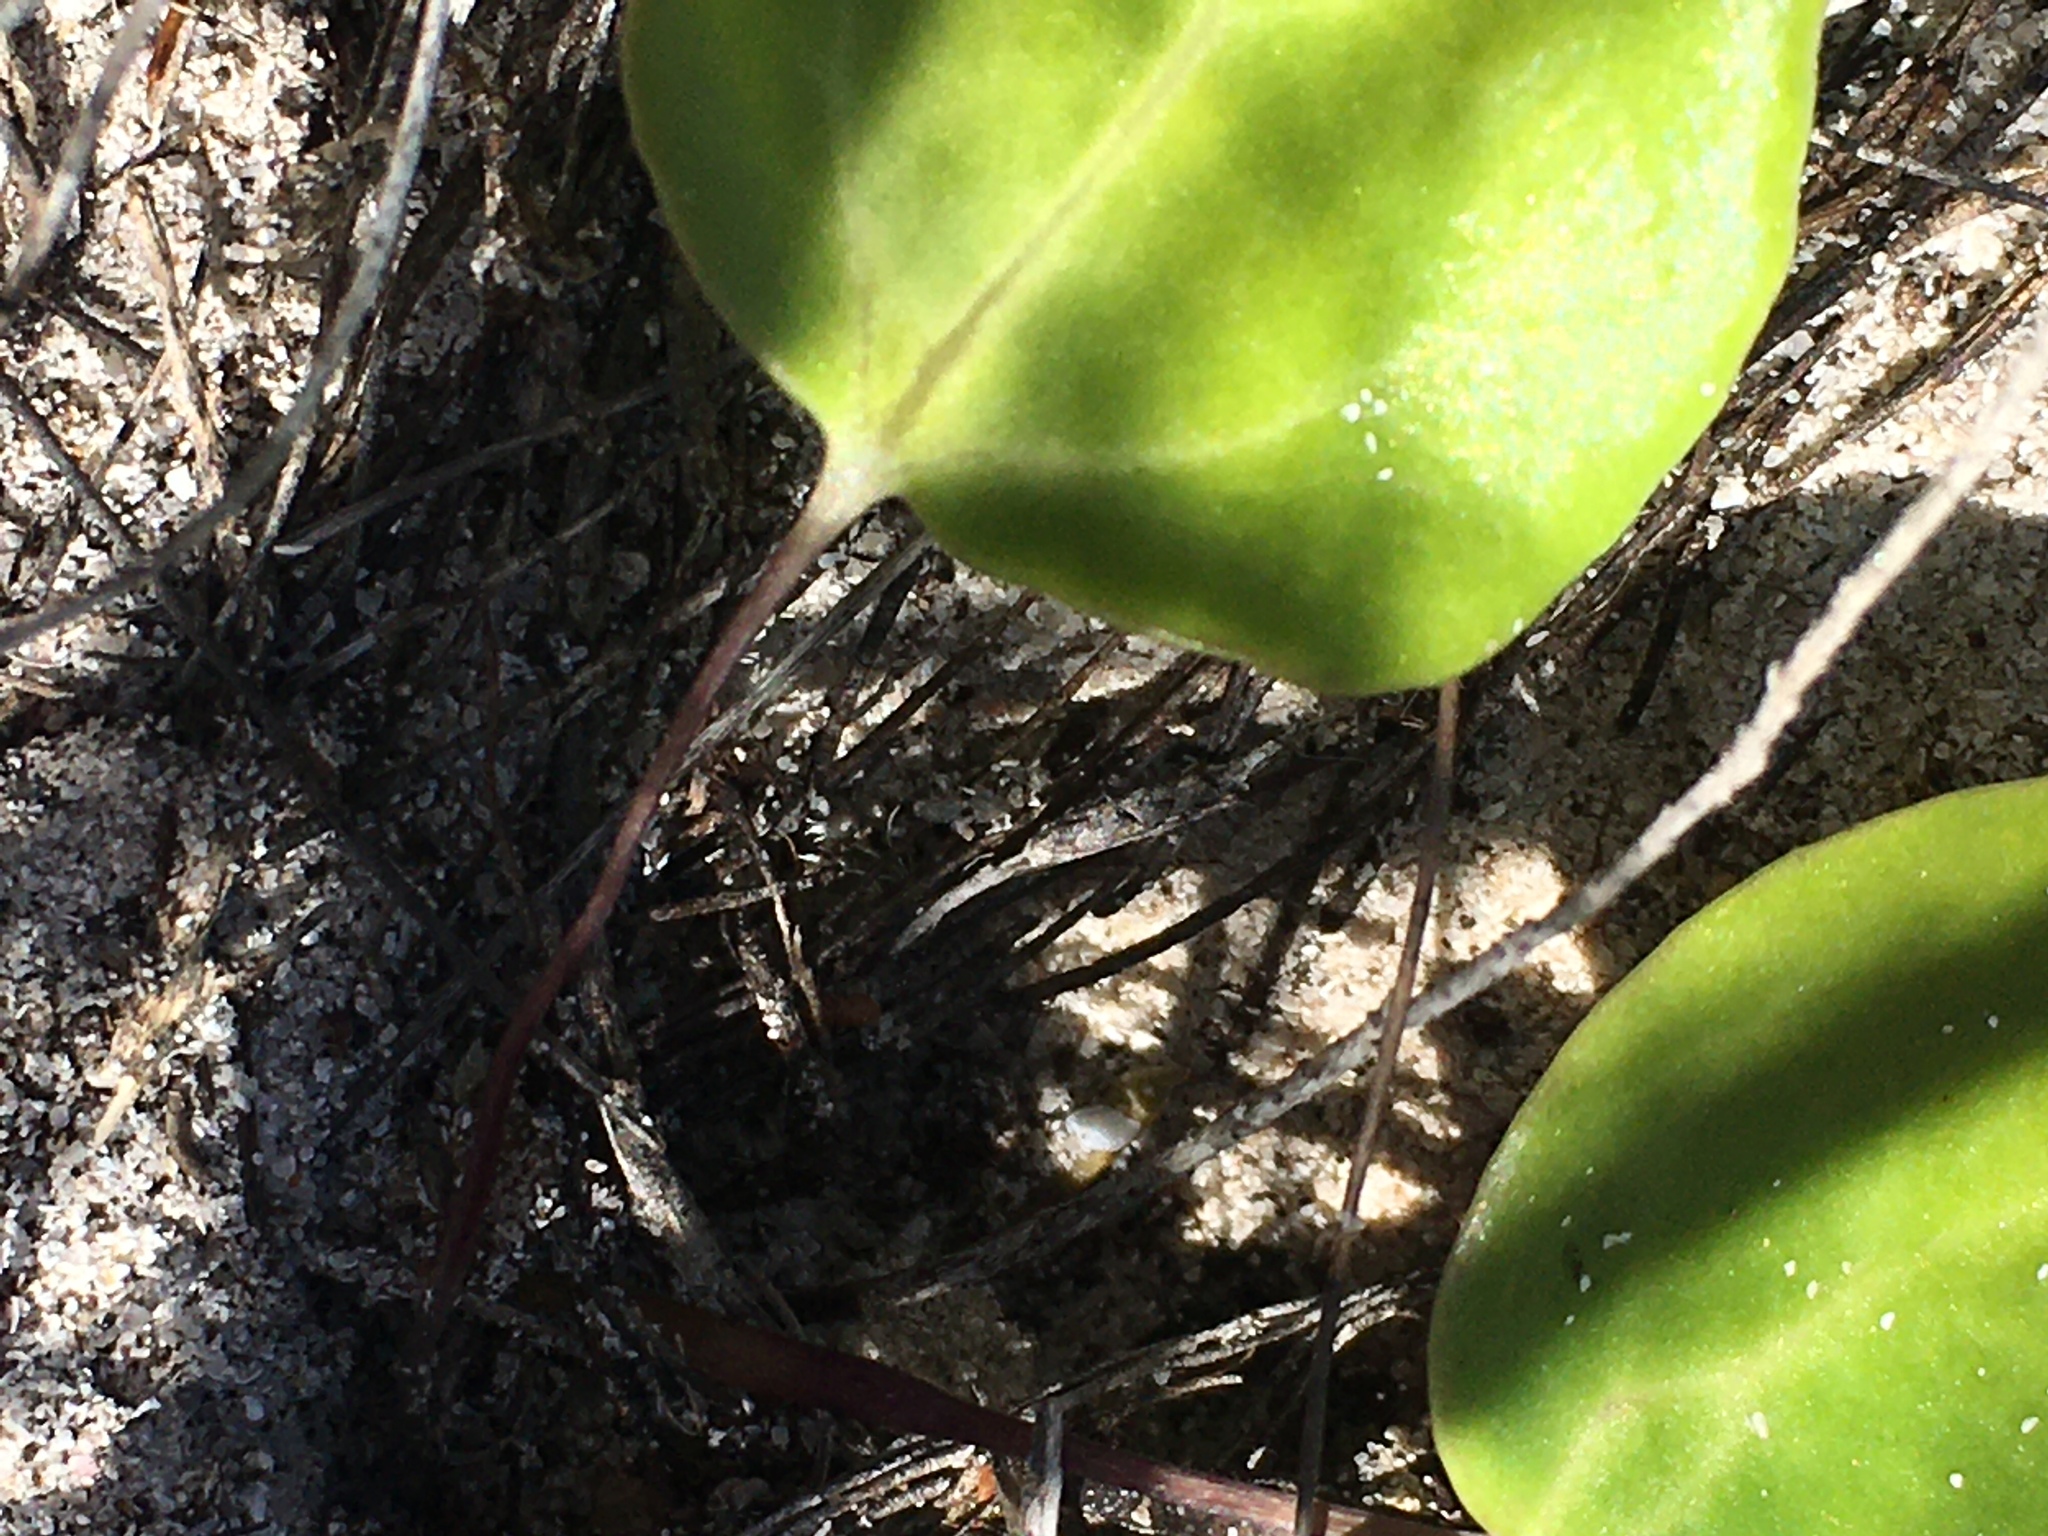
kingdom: Plantae
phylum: Tracheophyta
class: Magnoliopsida
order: Asterales
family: Asteraceae
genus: Othonna
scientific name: Othonna undulosa
